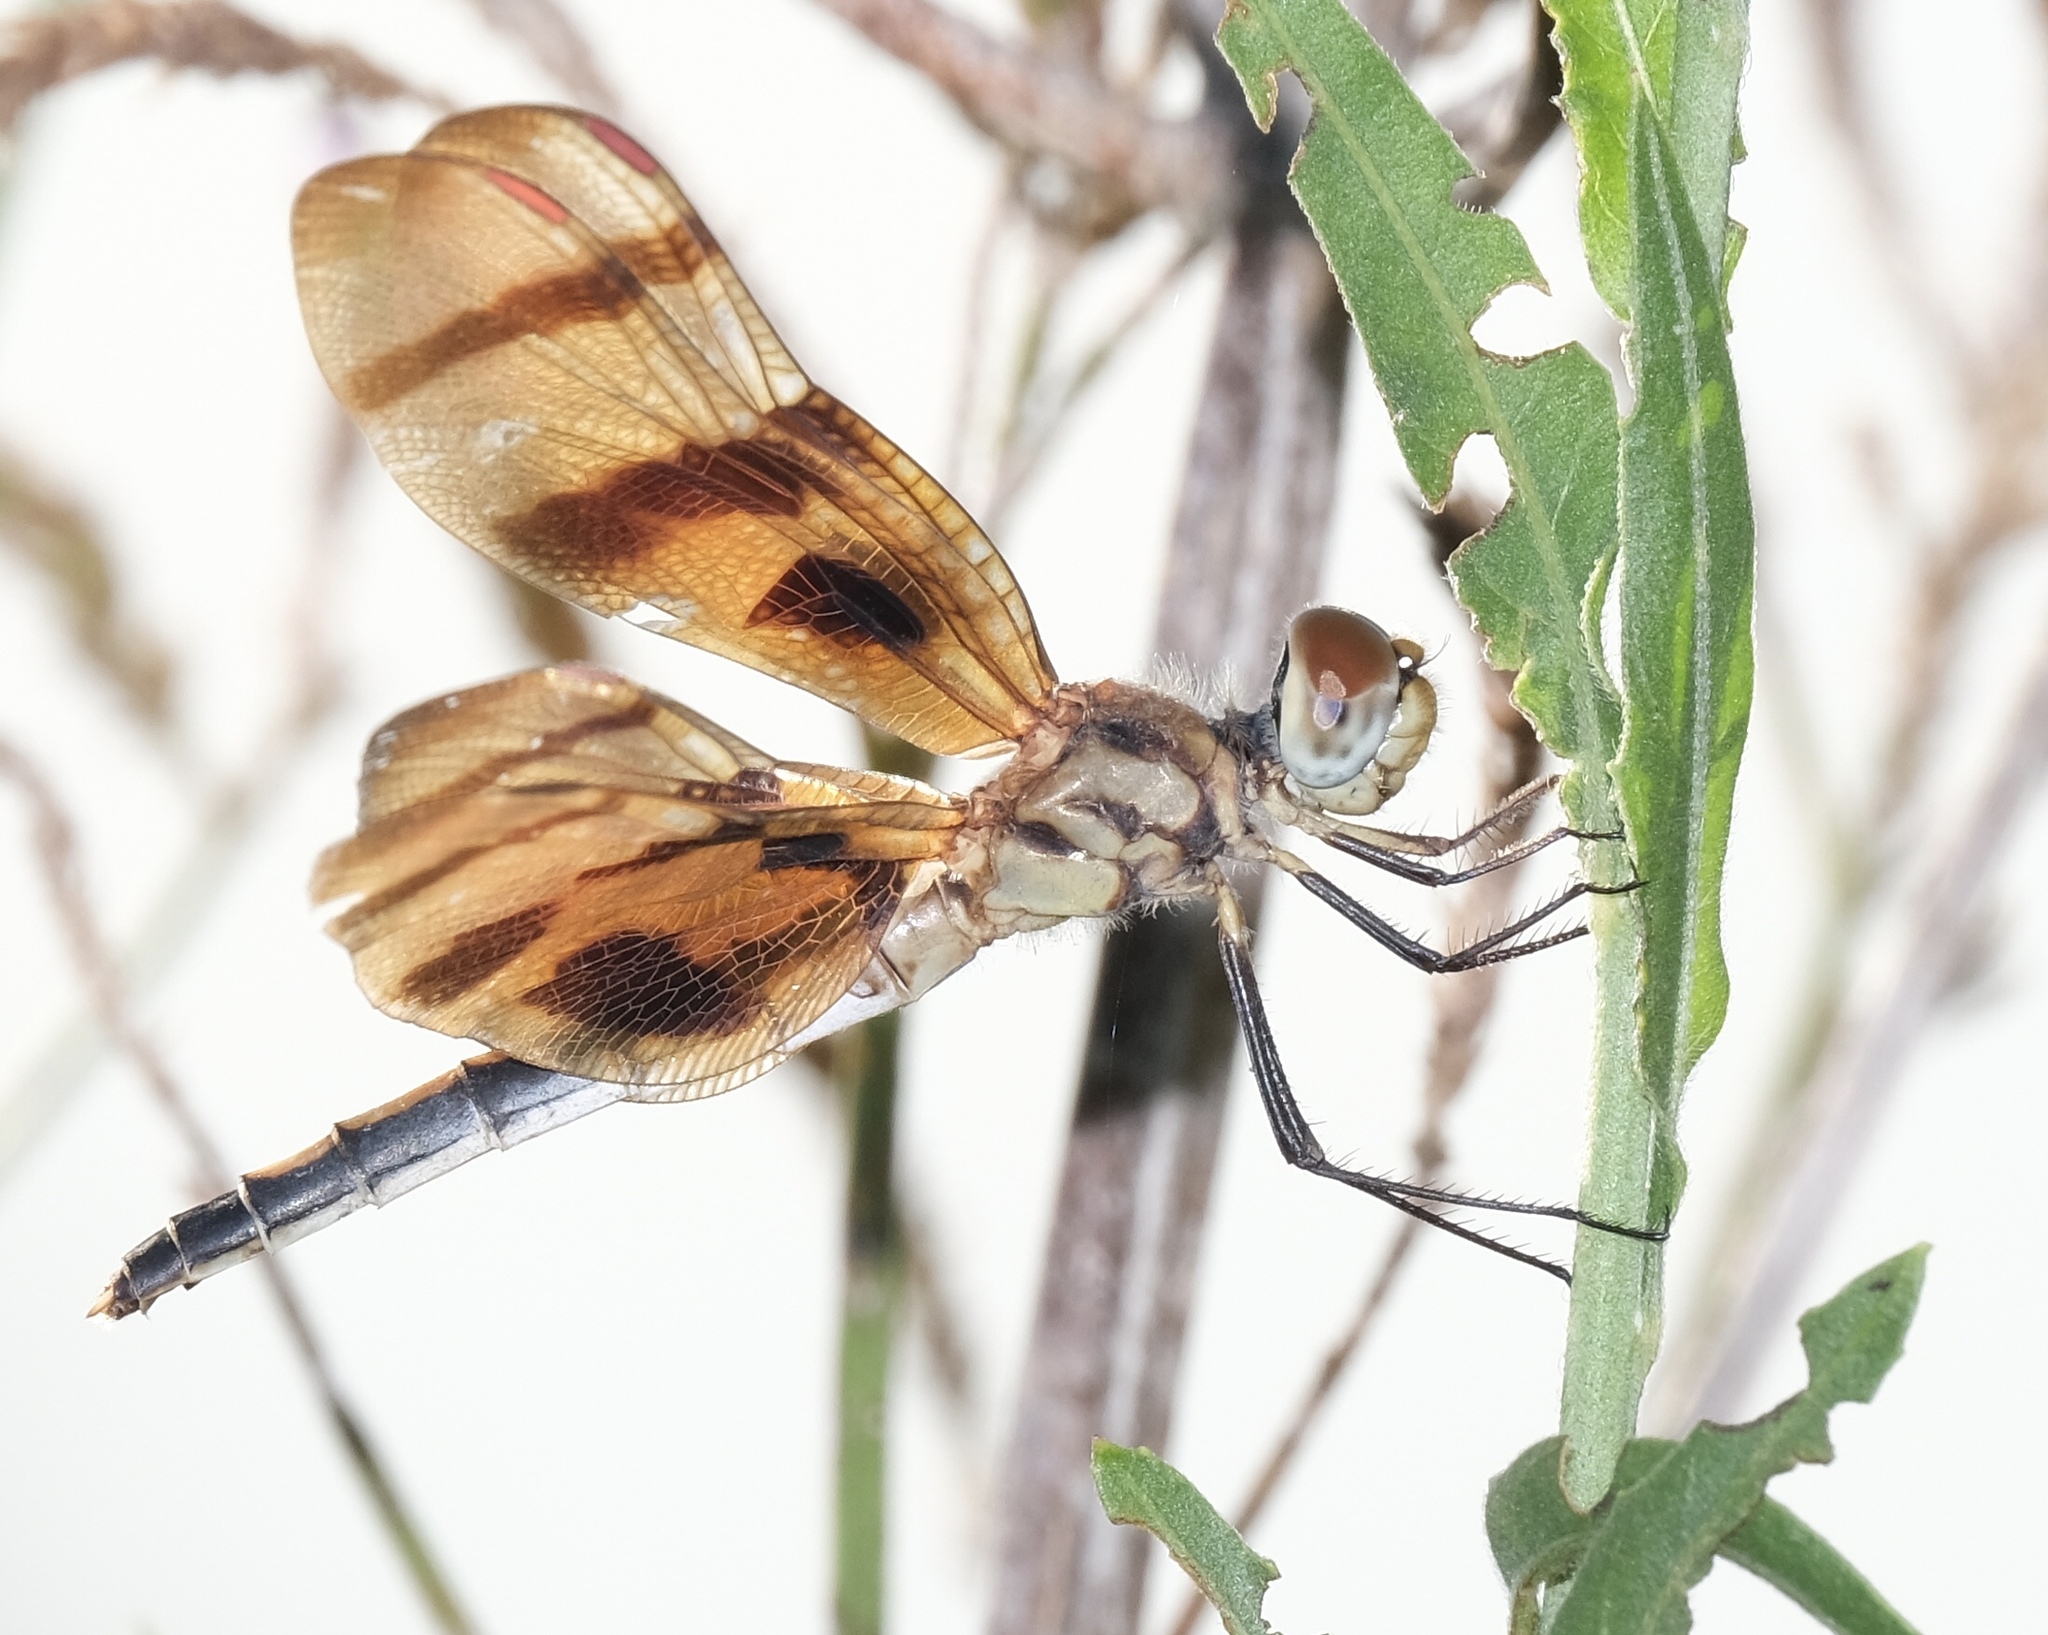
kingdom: Animalia
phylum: Arthropoda
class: Insecta
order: Odonata
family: Libellulidae
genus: Celithemis
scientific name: Celithemis eponina
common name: Halloween pennant
